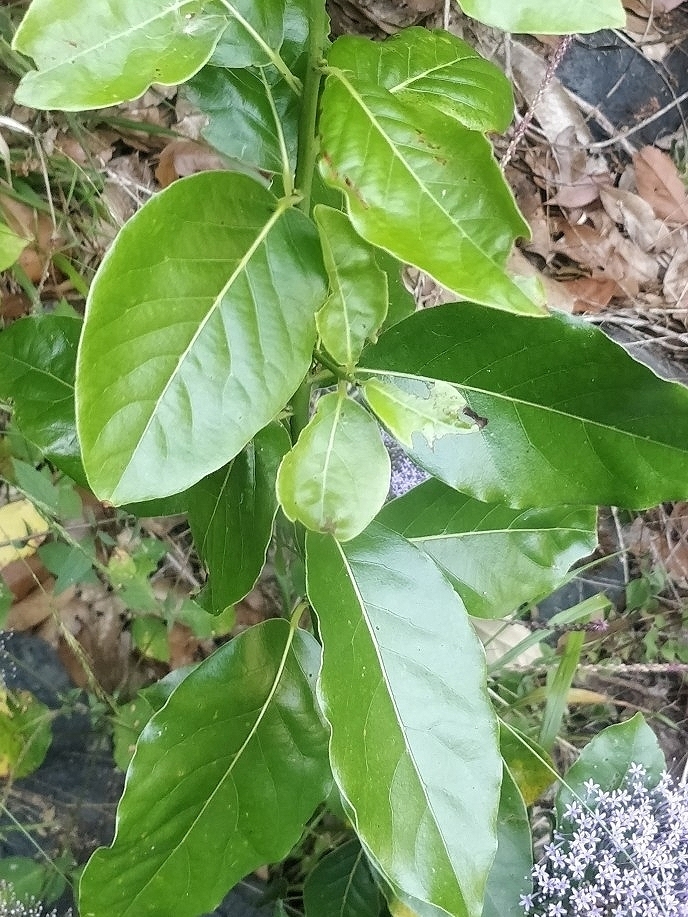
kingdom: Plantae
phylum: Tracheophyta
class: Magnoliopsida
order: Laurales
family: Lauraceae
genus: Laurus
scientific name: Laurus novocanariensis
